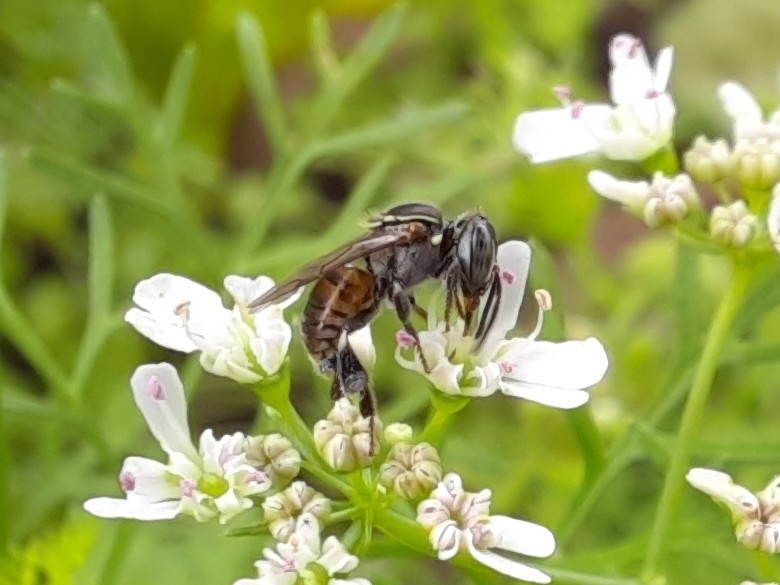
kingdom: Animalia
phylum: Arthropoda
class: Insecta
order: Hymenoptera
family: Apidae
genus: Paratrigona
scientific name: Paratrigona lineata
